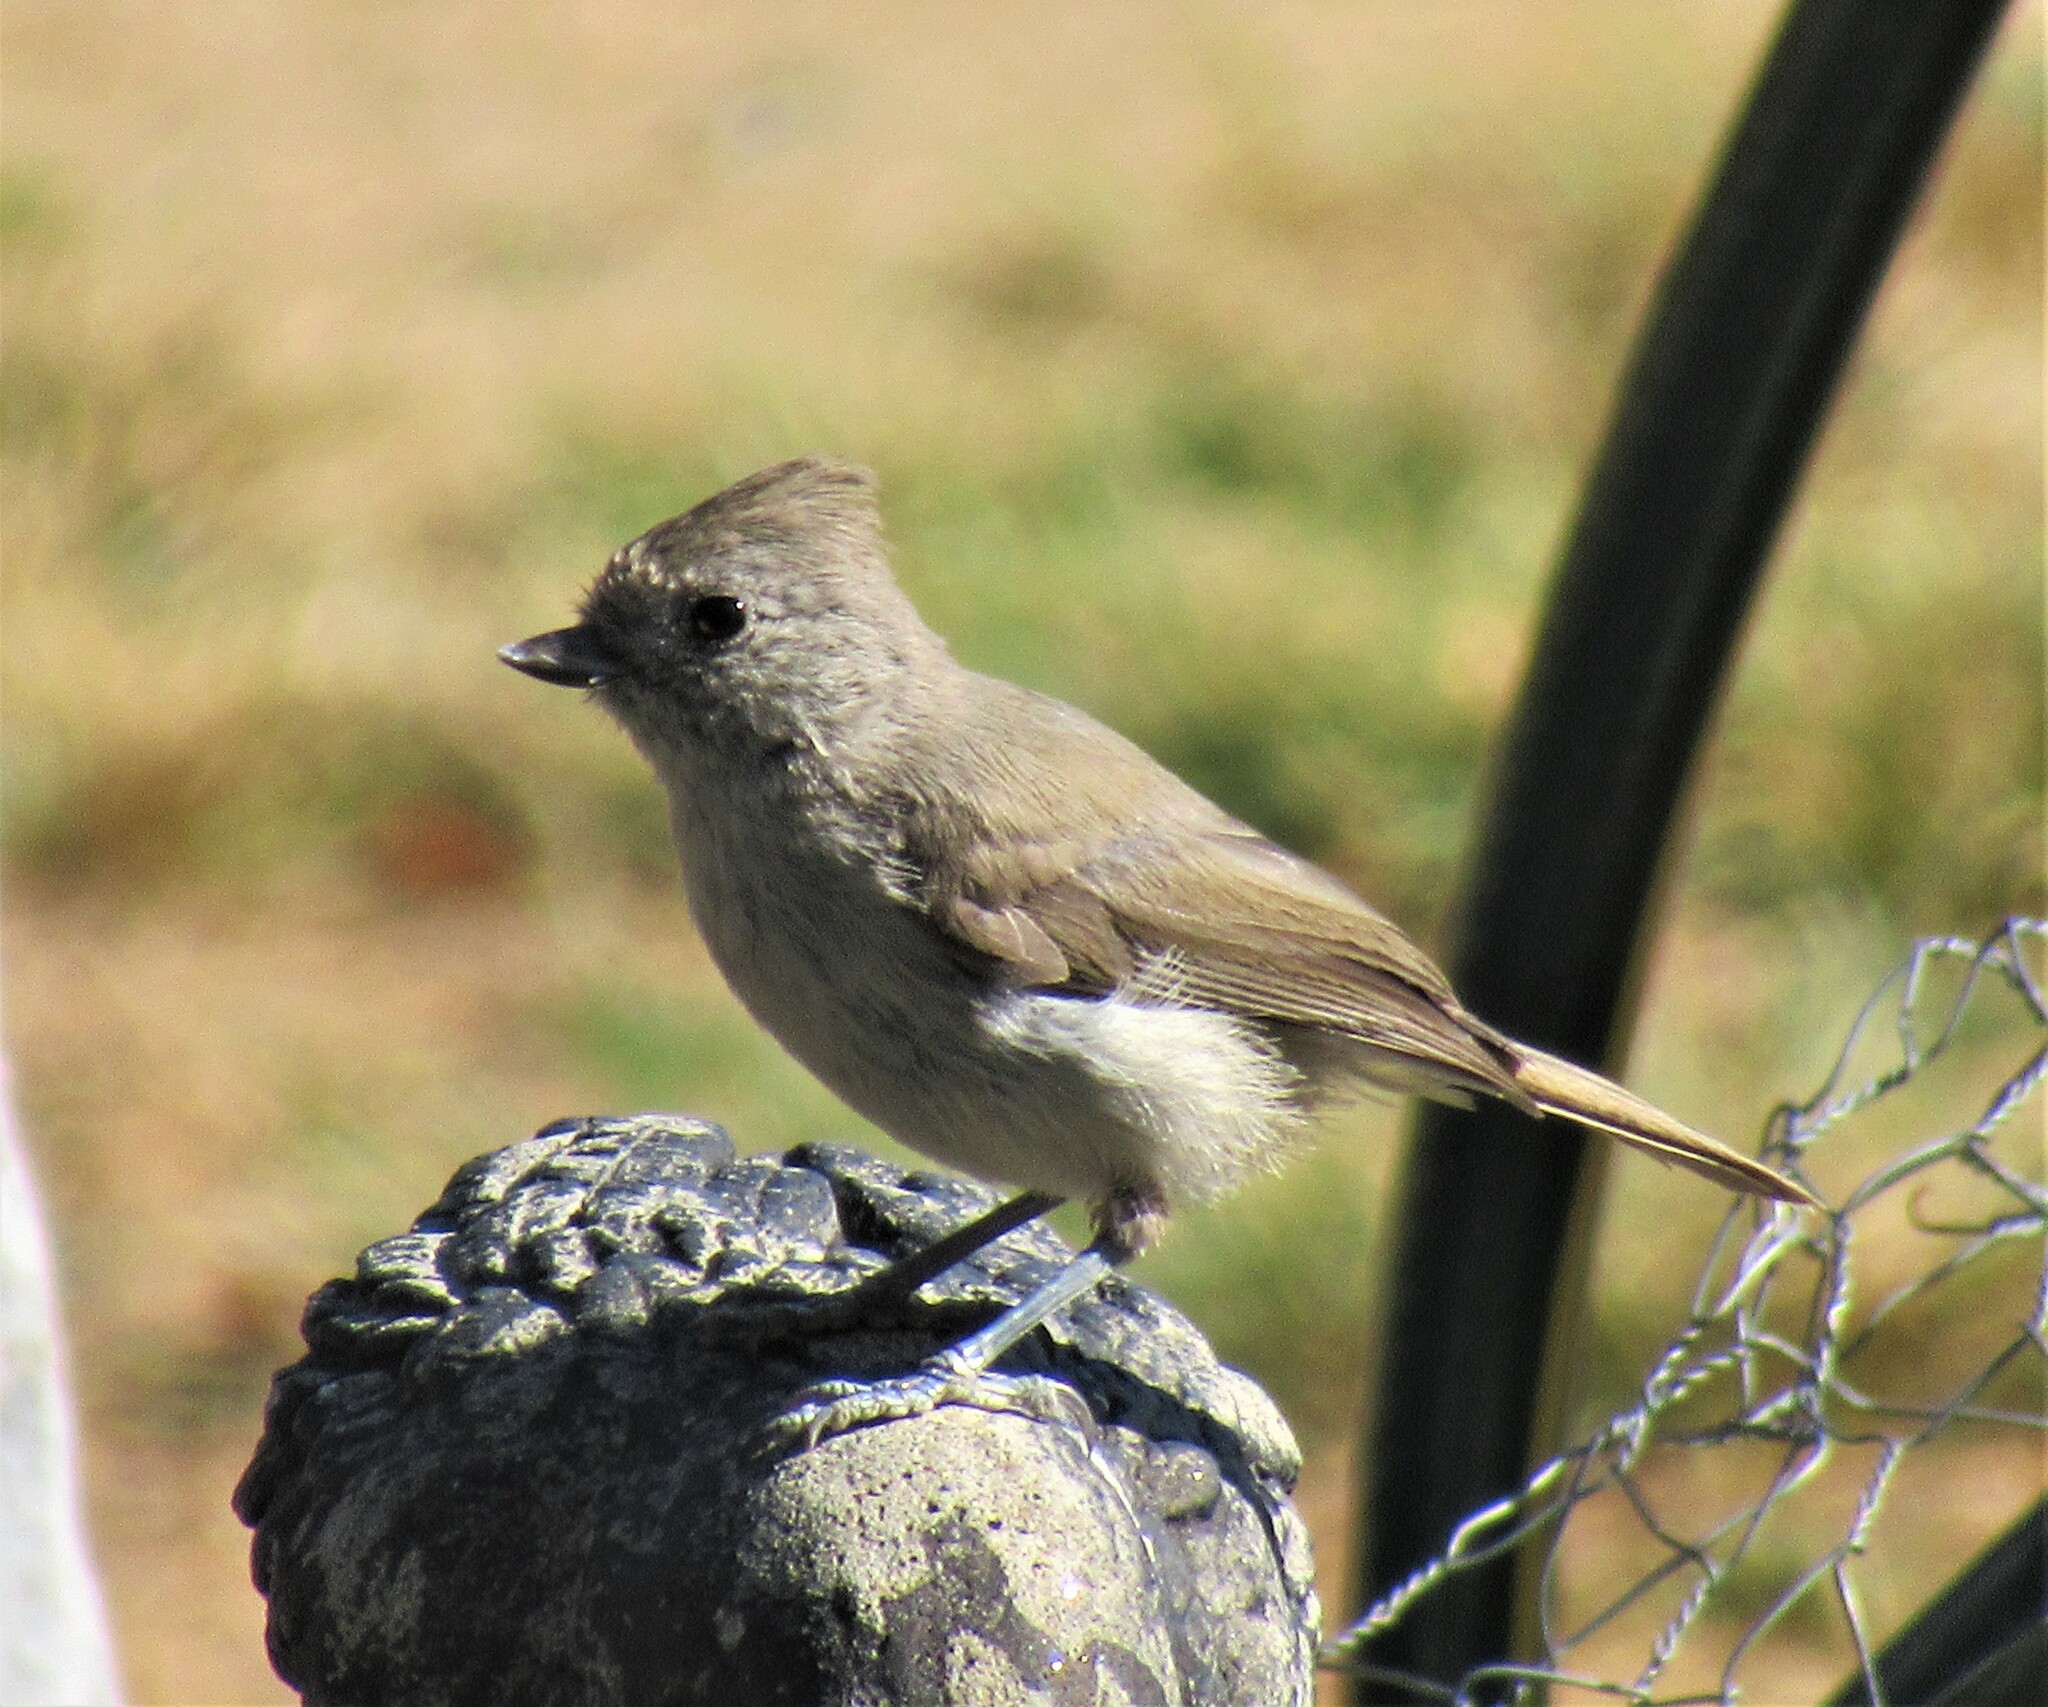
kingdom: Animalia
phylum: Chordata
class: Aves
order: Passeriformes
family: Paridae
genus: Baeolophus
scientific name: Baeolophus inornatus
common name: Oak titmouse
